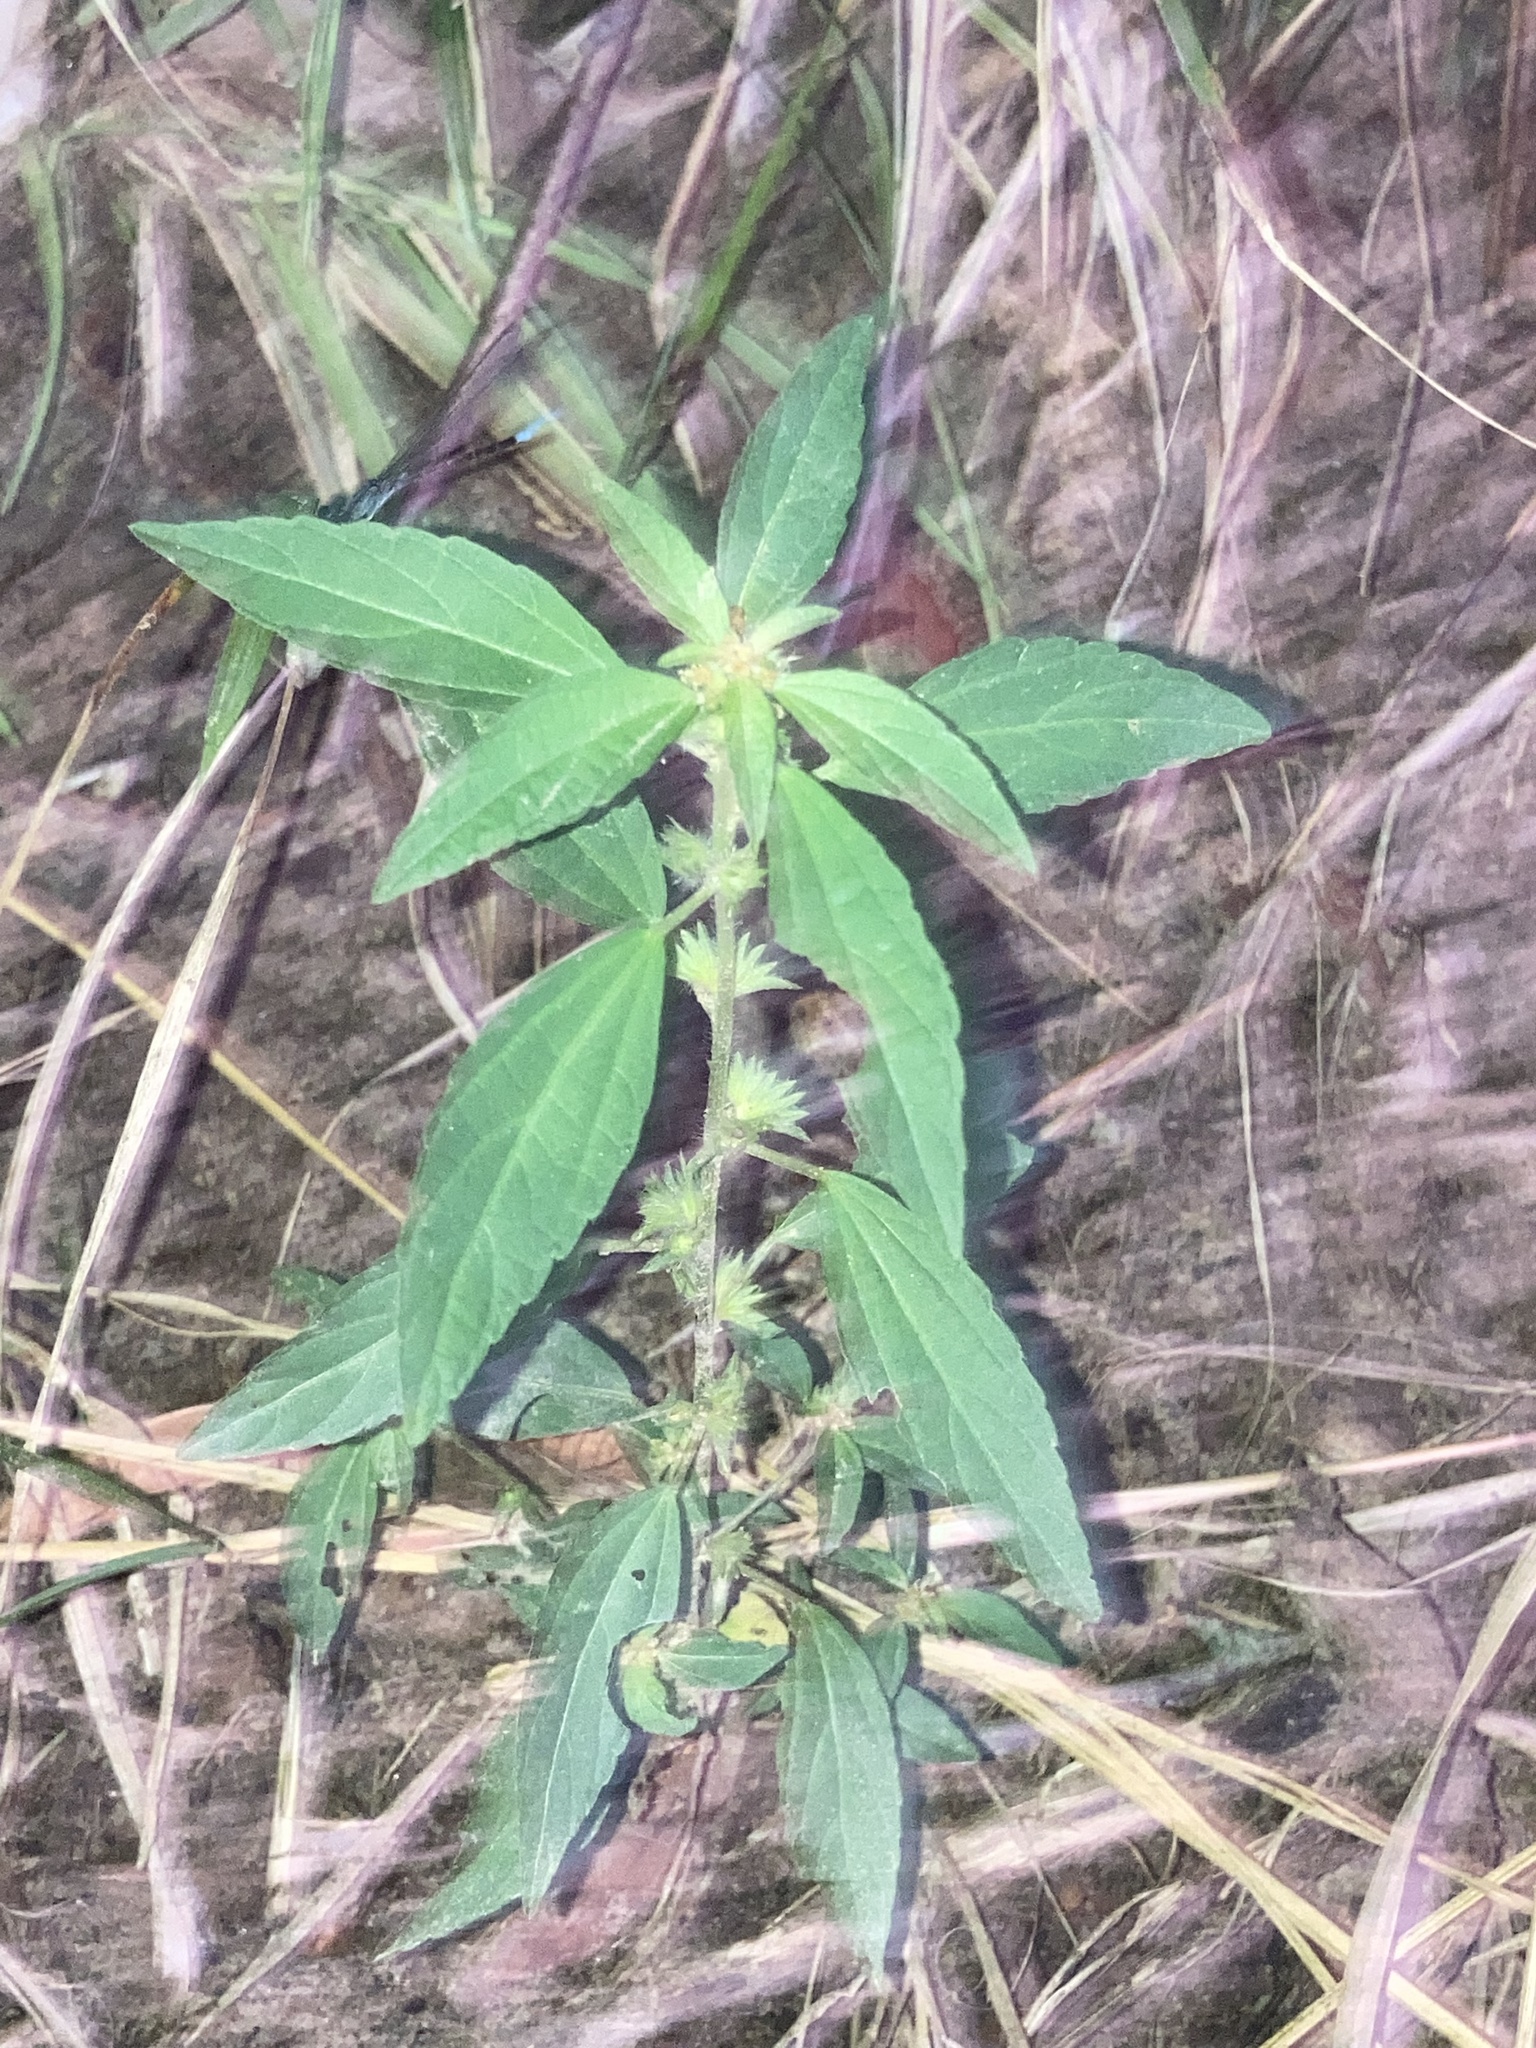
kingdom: Plantae
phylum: Tracheophyta
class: Magnoliopsida
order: Malpighiales
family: Euphorbiaceae
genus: Acalypha
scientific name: Acalypha virginica
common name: Virginia copperleaf
